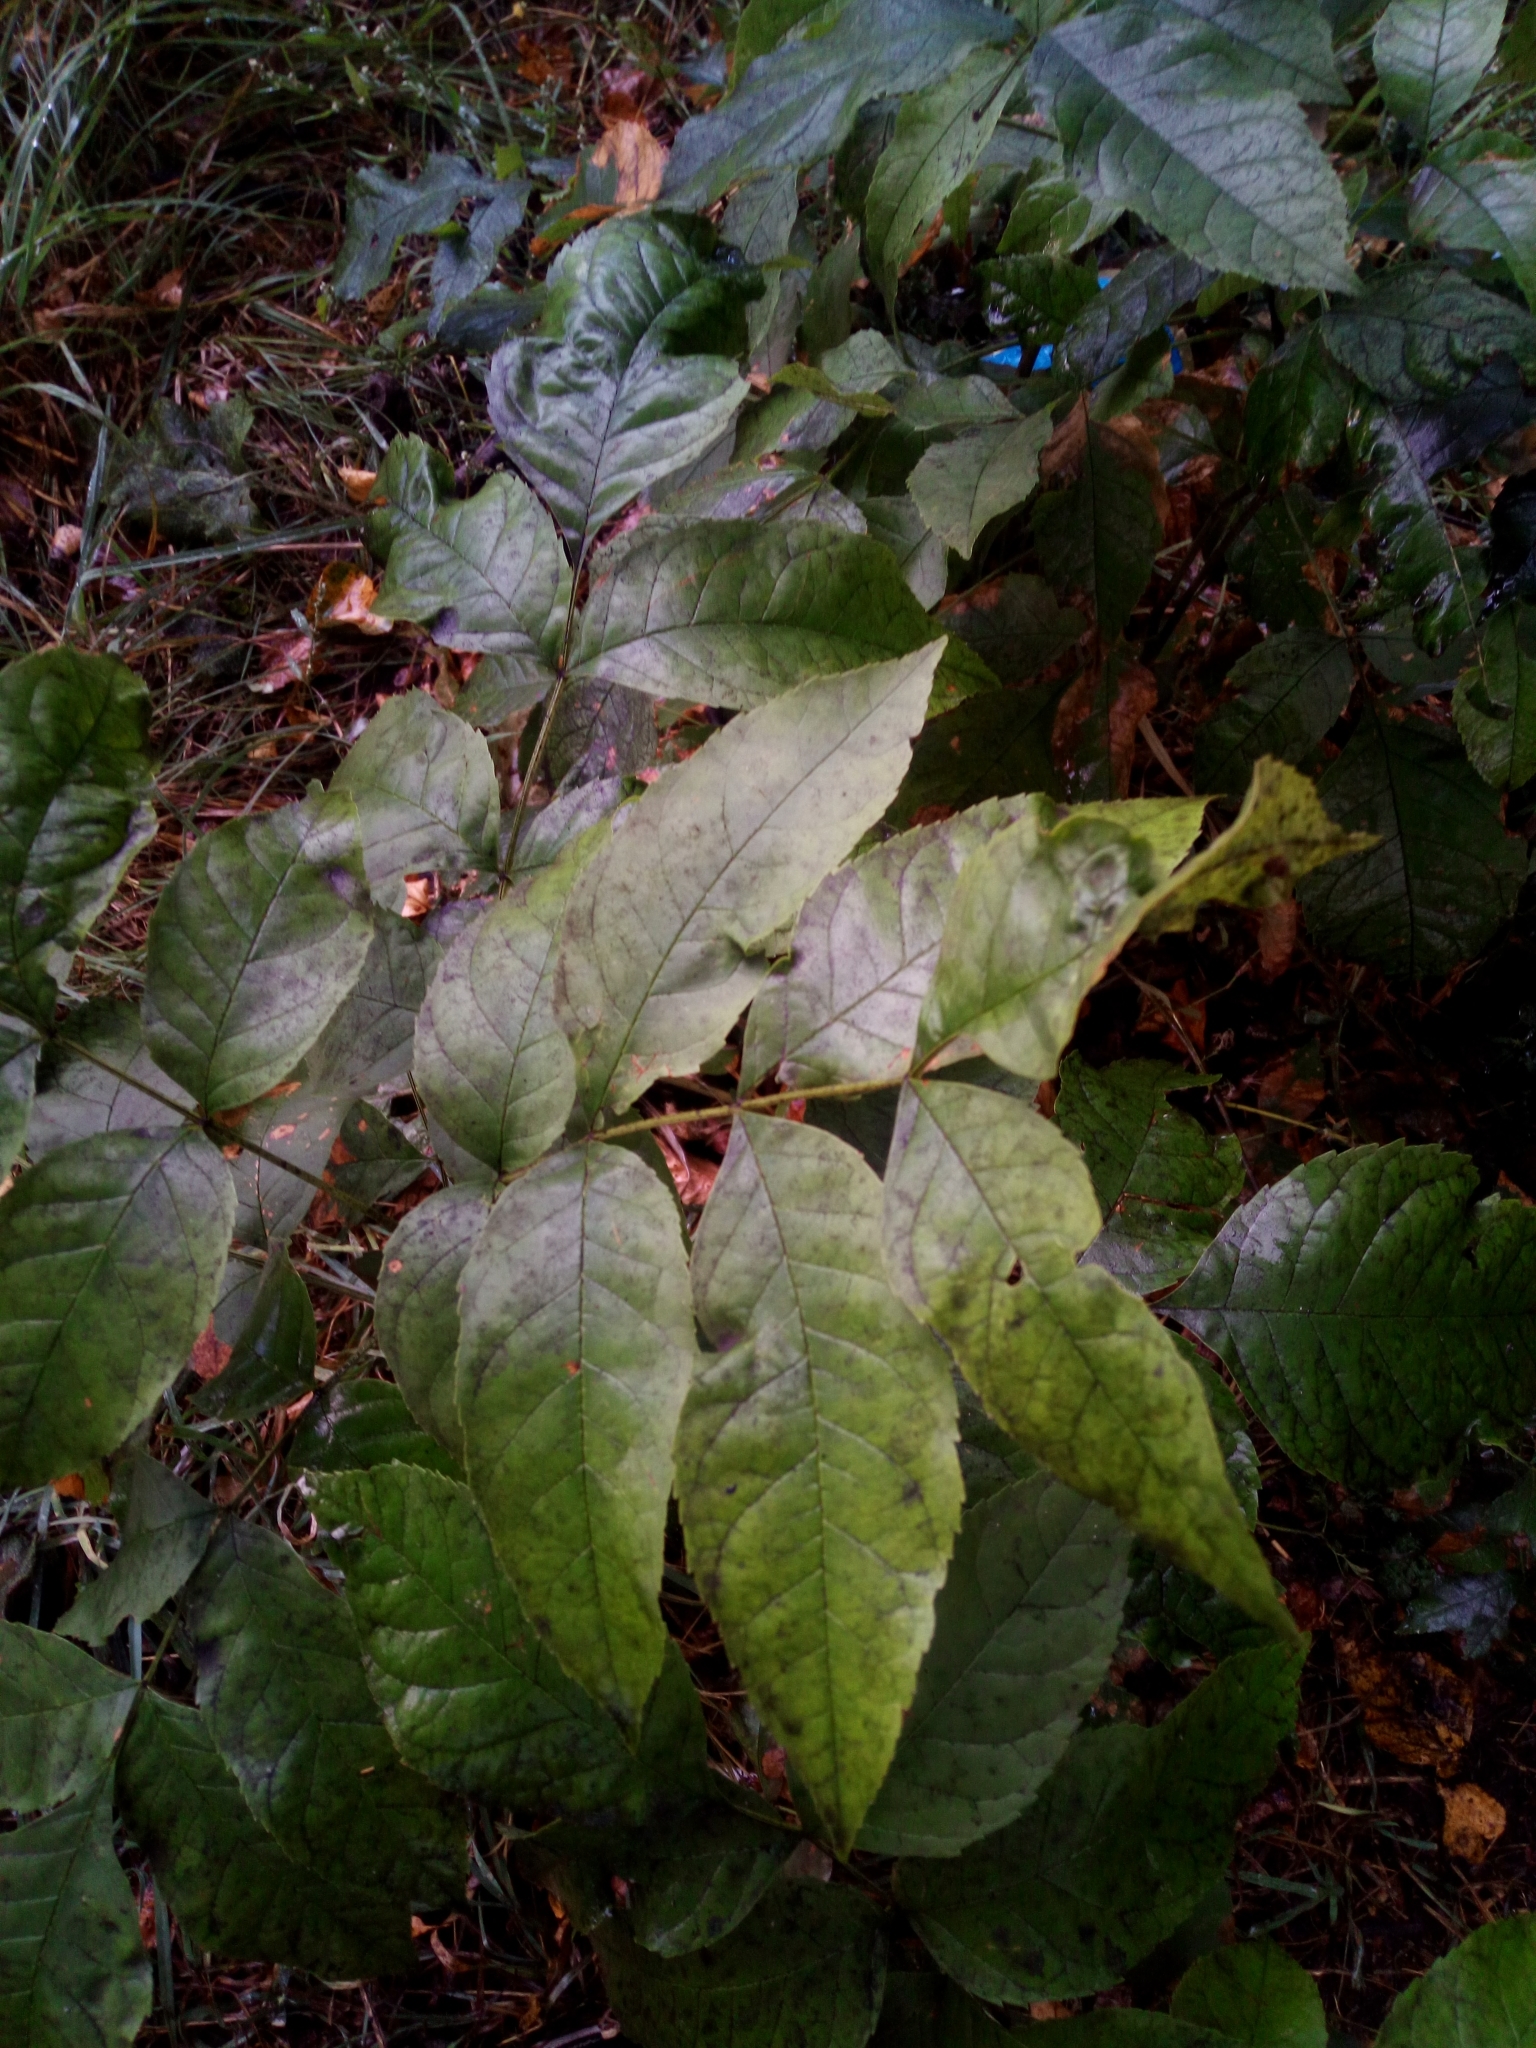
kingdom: Plantae
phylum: Tracheophyta
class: Magnoliopsida
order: Lamiales
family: Oleaceae
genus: Fraxinus
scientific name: Fraxinus excelsior
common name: European ash
